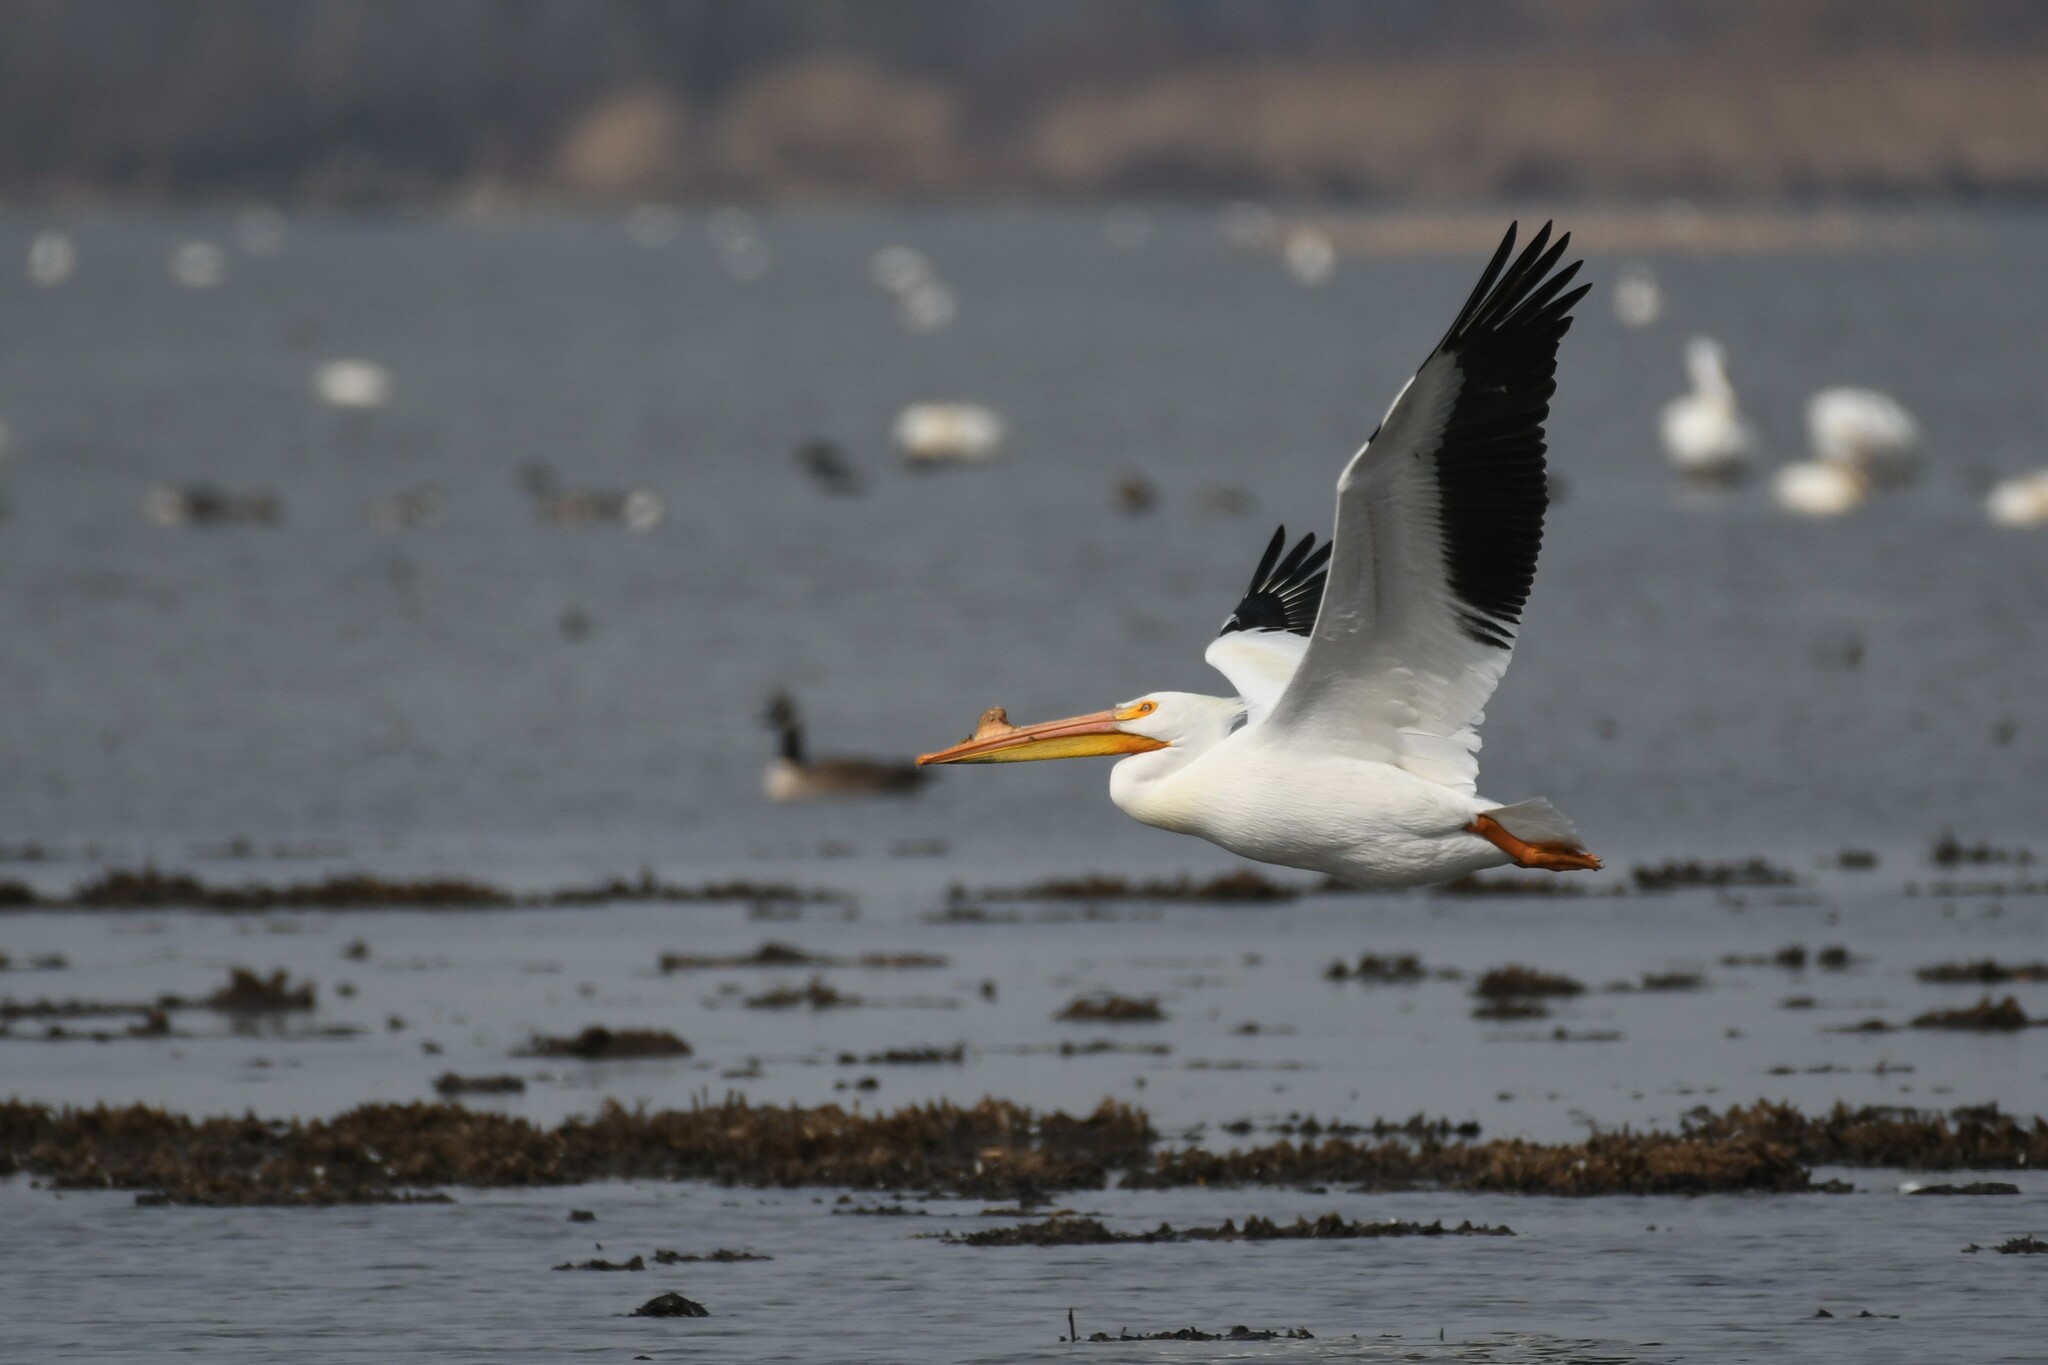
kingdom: Animalia
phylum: Chordata
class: Aves
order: Pelecaniformes
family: Pelecanidae
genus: Pelecanus
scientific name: Pelecanus erythrorhynchos
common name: American white pelican
